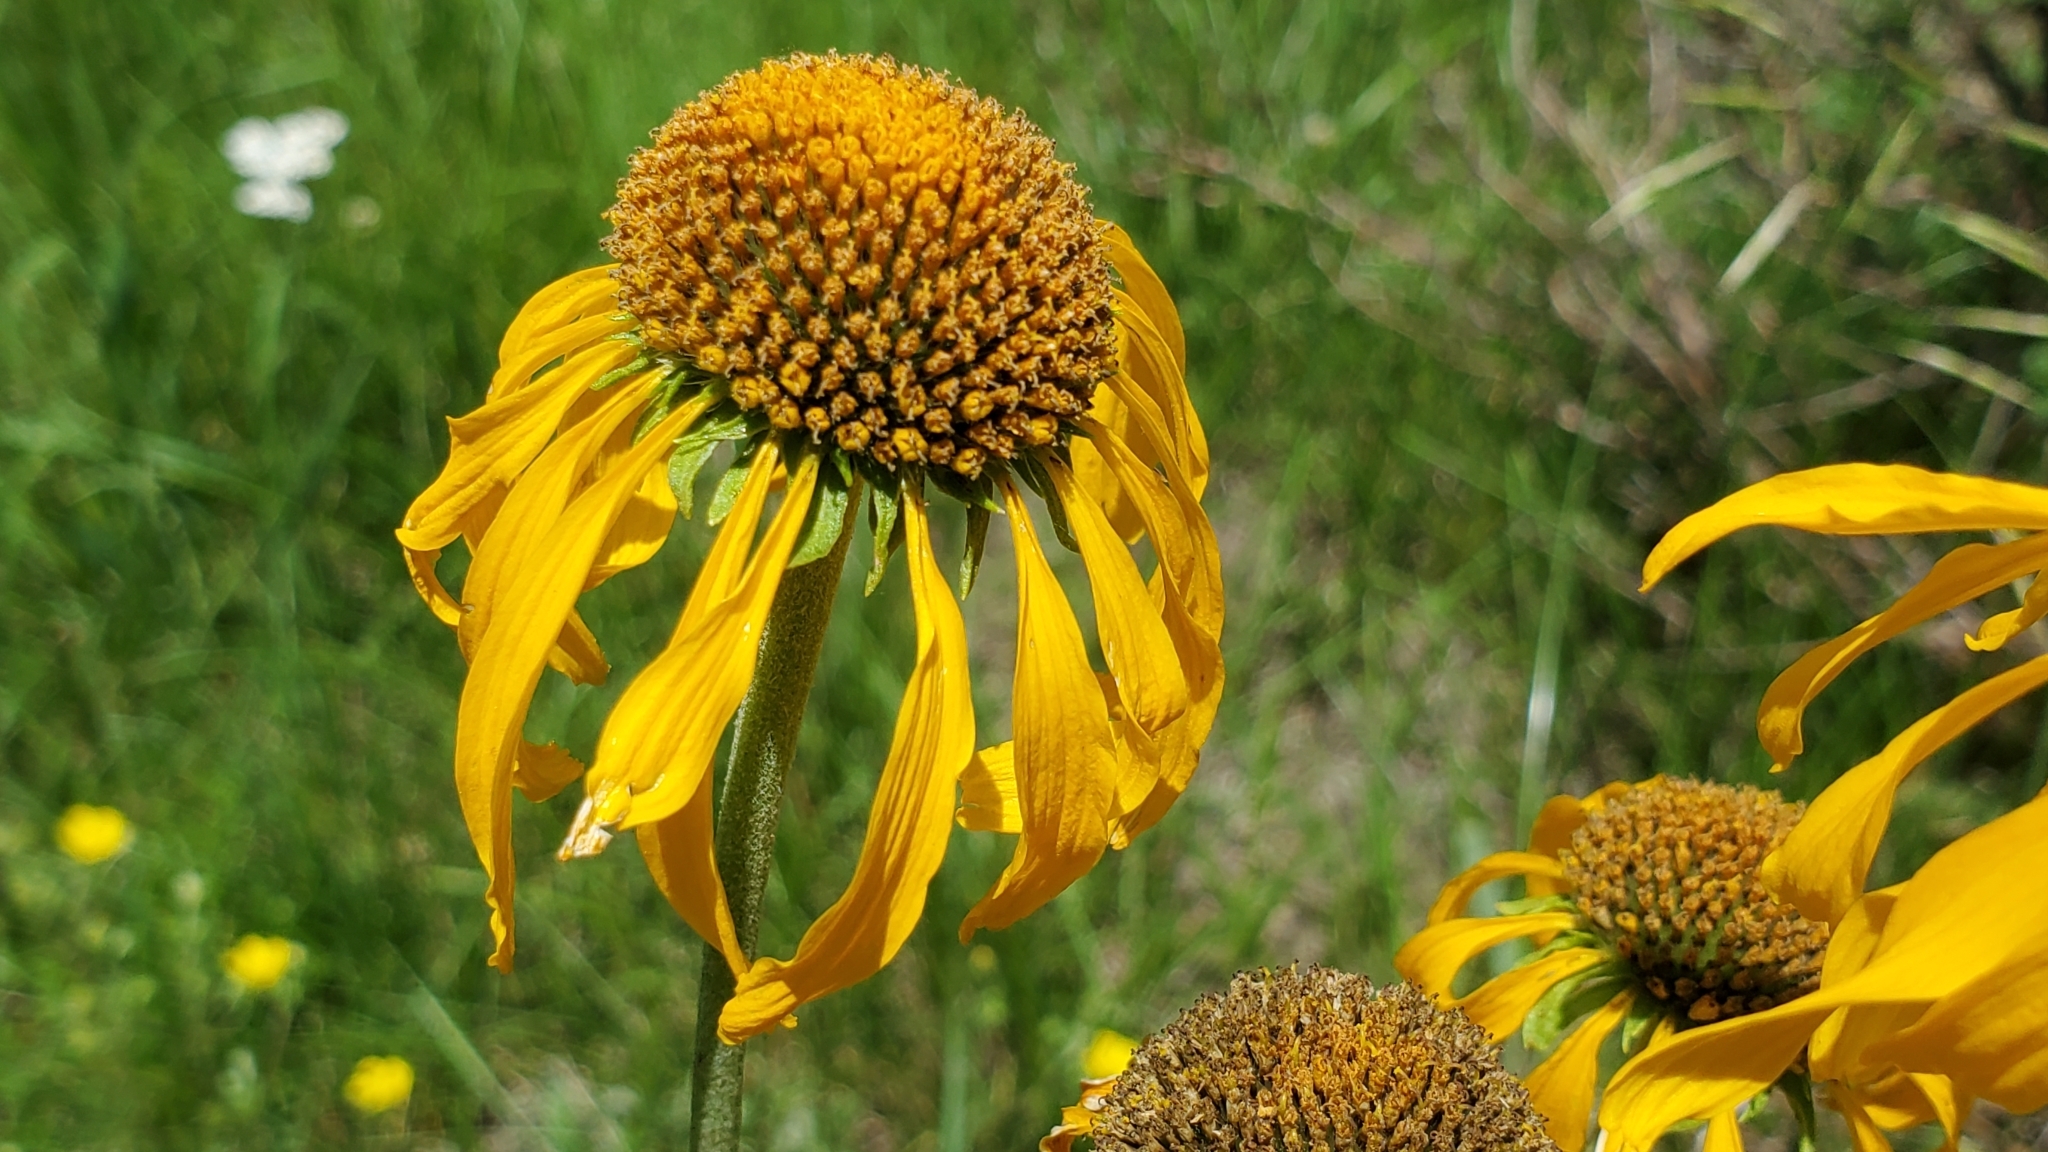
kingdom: Plantae
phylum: Tracheophyta
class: Magnoliopsida
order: Asterales
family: Asteraceae
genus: Hymenoxys
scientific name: Hymenoxys hoopesii
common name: Orange-sneezeweed
